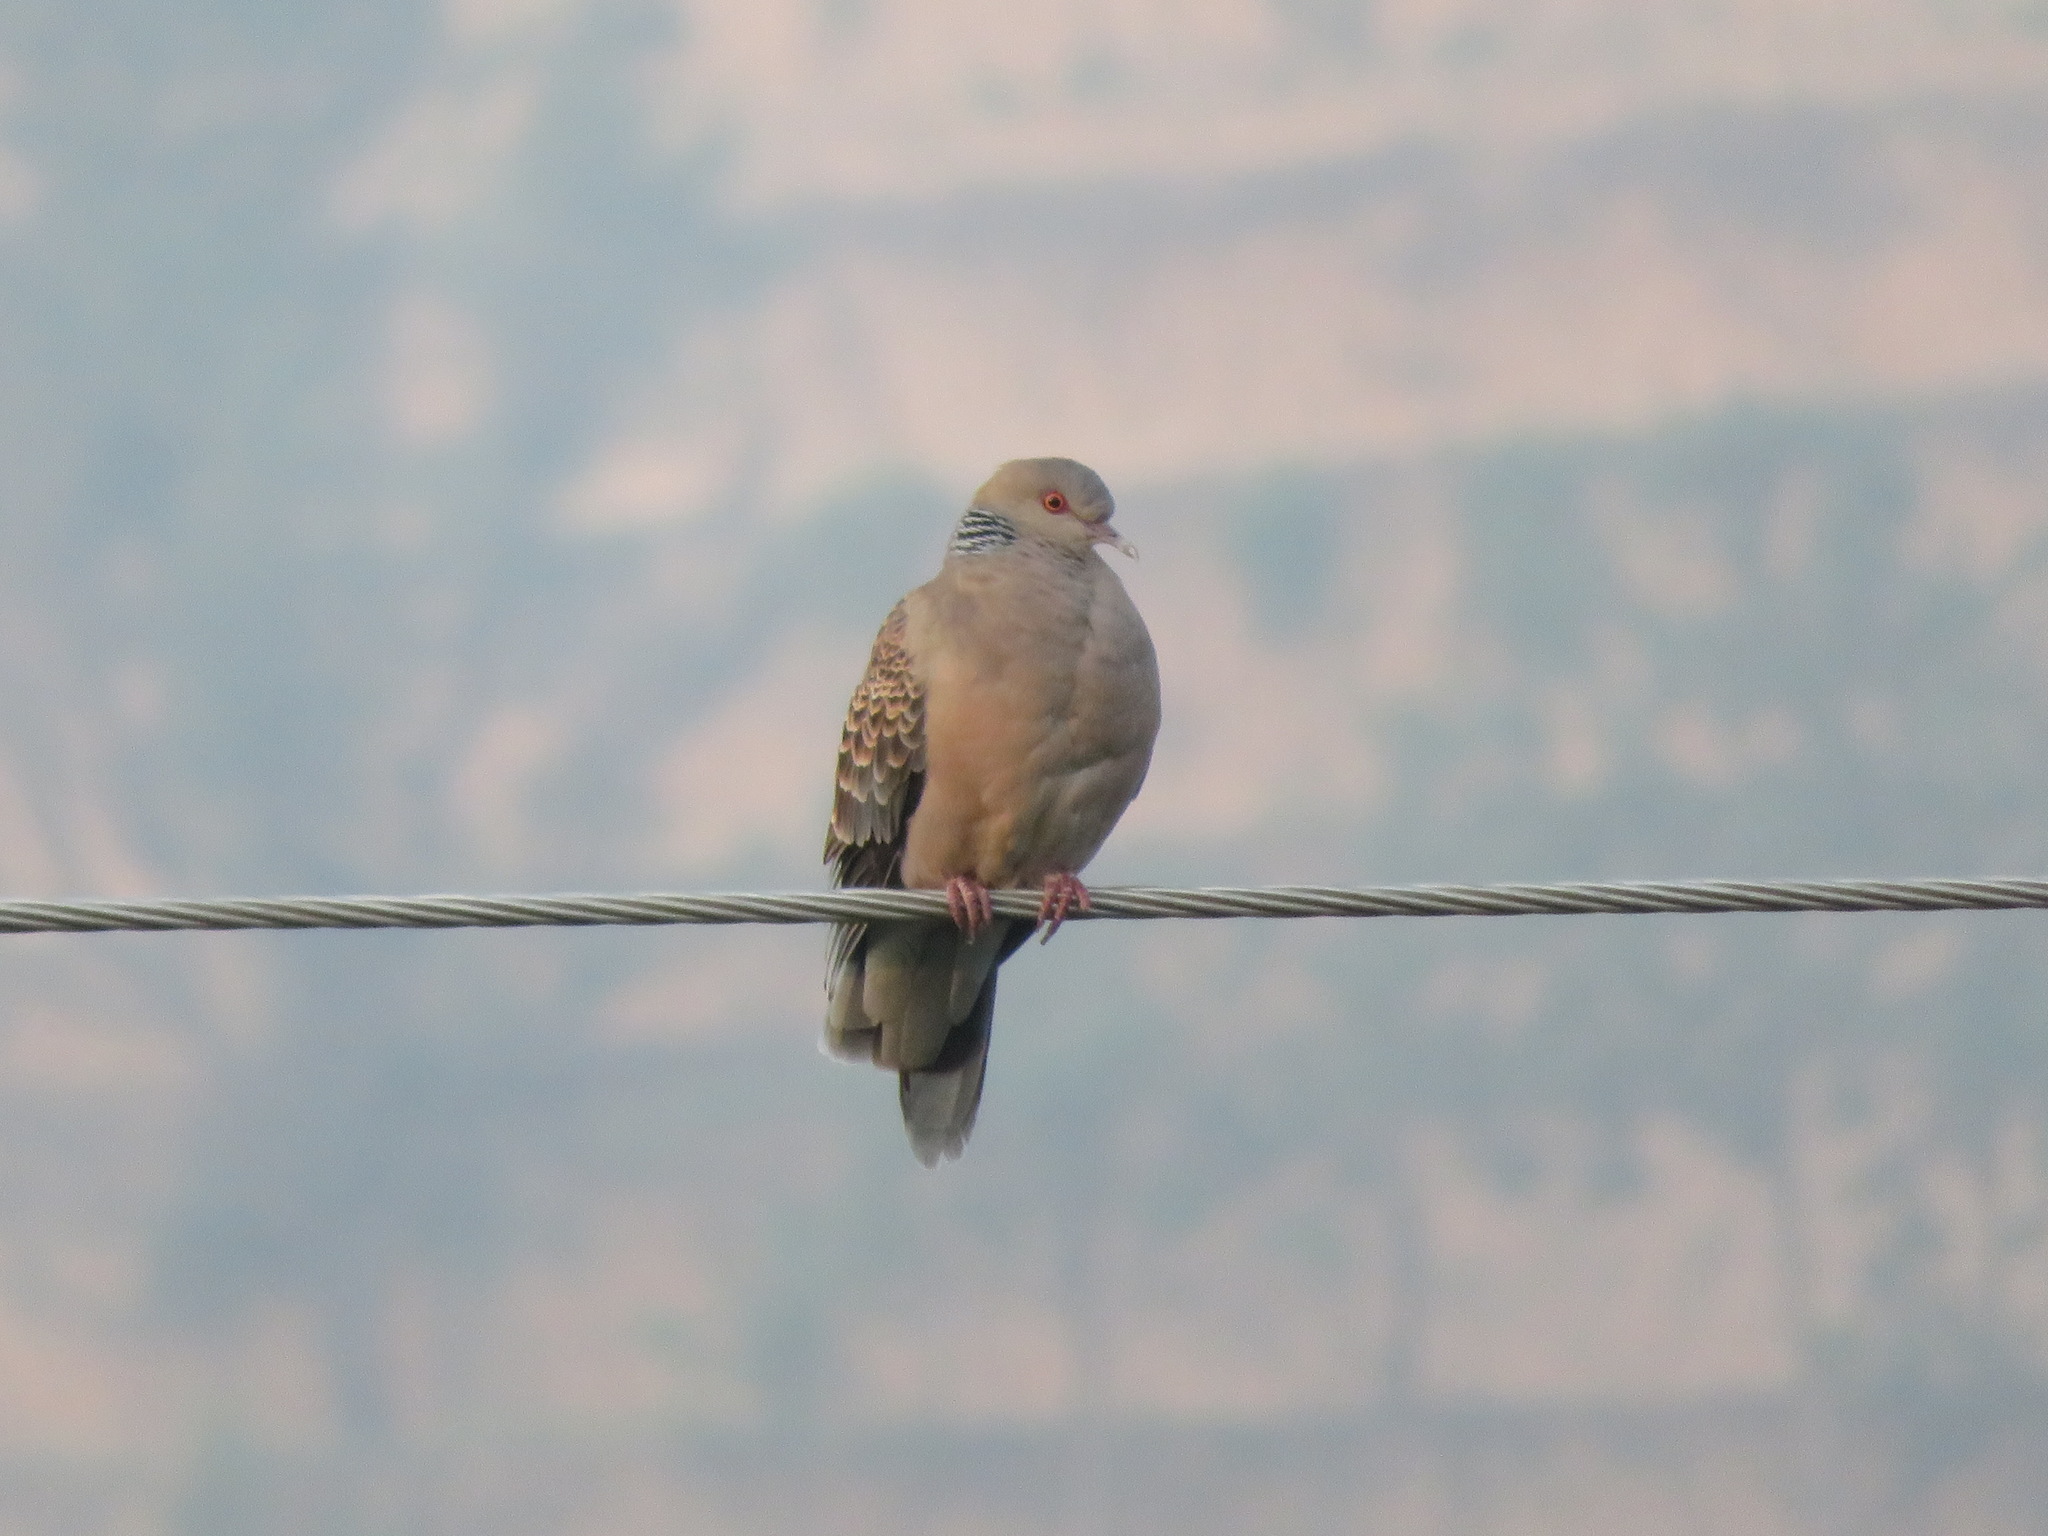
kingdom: Animalia
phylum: Chordata
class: Aves
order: Columbiformes
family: Columbidae
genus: Streptopelia
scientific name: Streptopelia orientalis
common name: Oriental turtle dove
